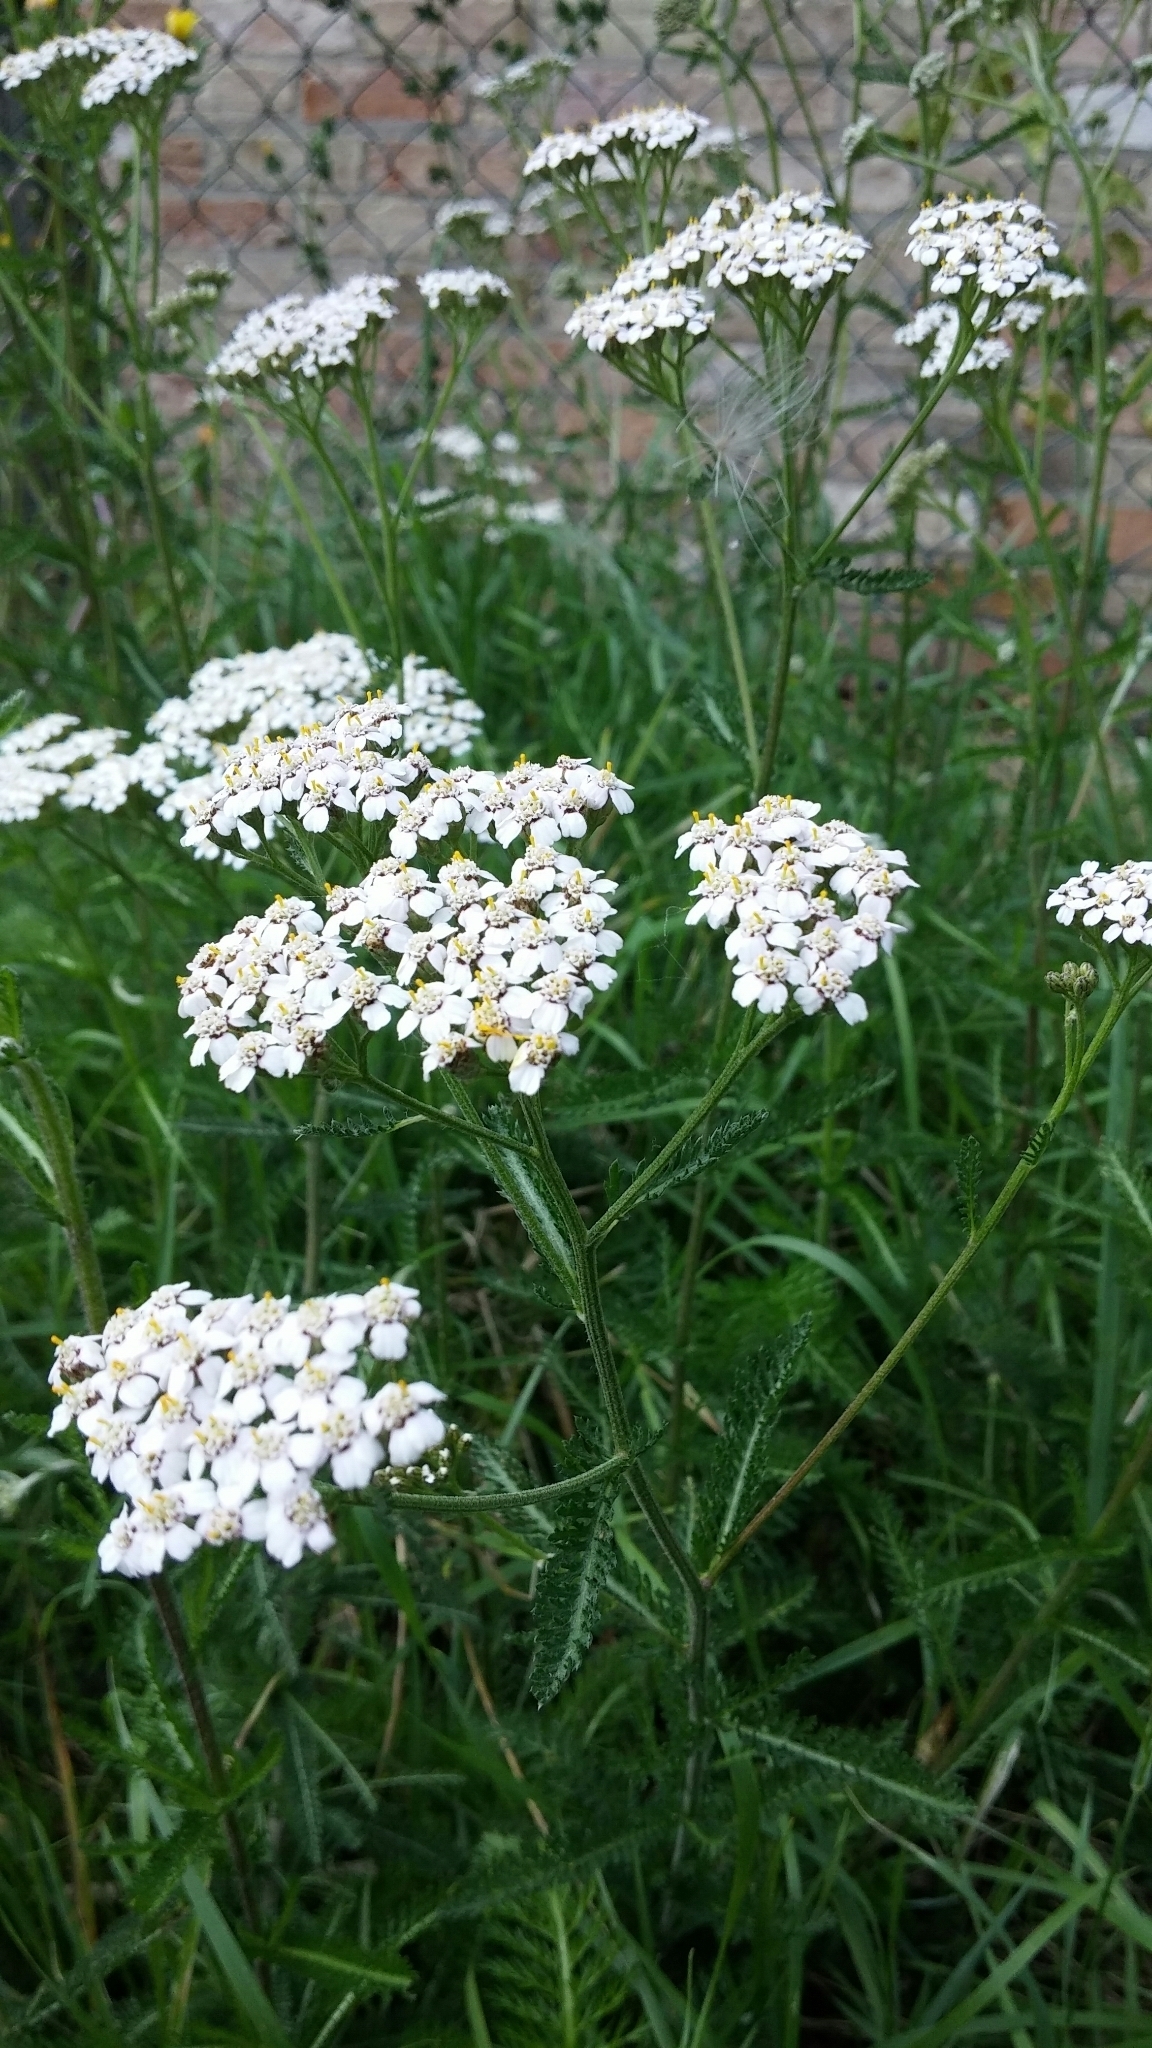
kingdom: Plantae
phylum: Tracheophyta
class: Magnoliopsida
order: Asterales
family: Asteraceae
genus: Achillea
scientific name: Achillea millefolium
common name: Yarrow
